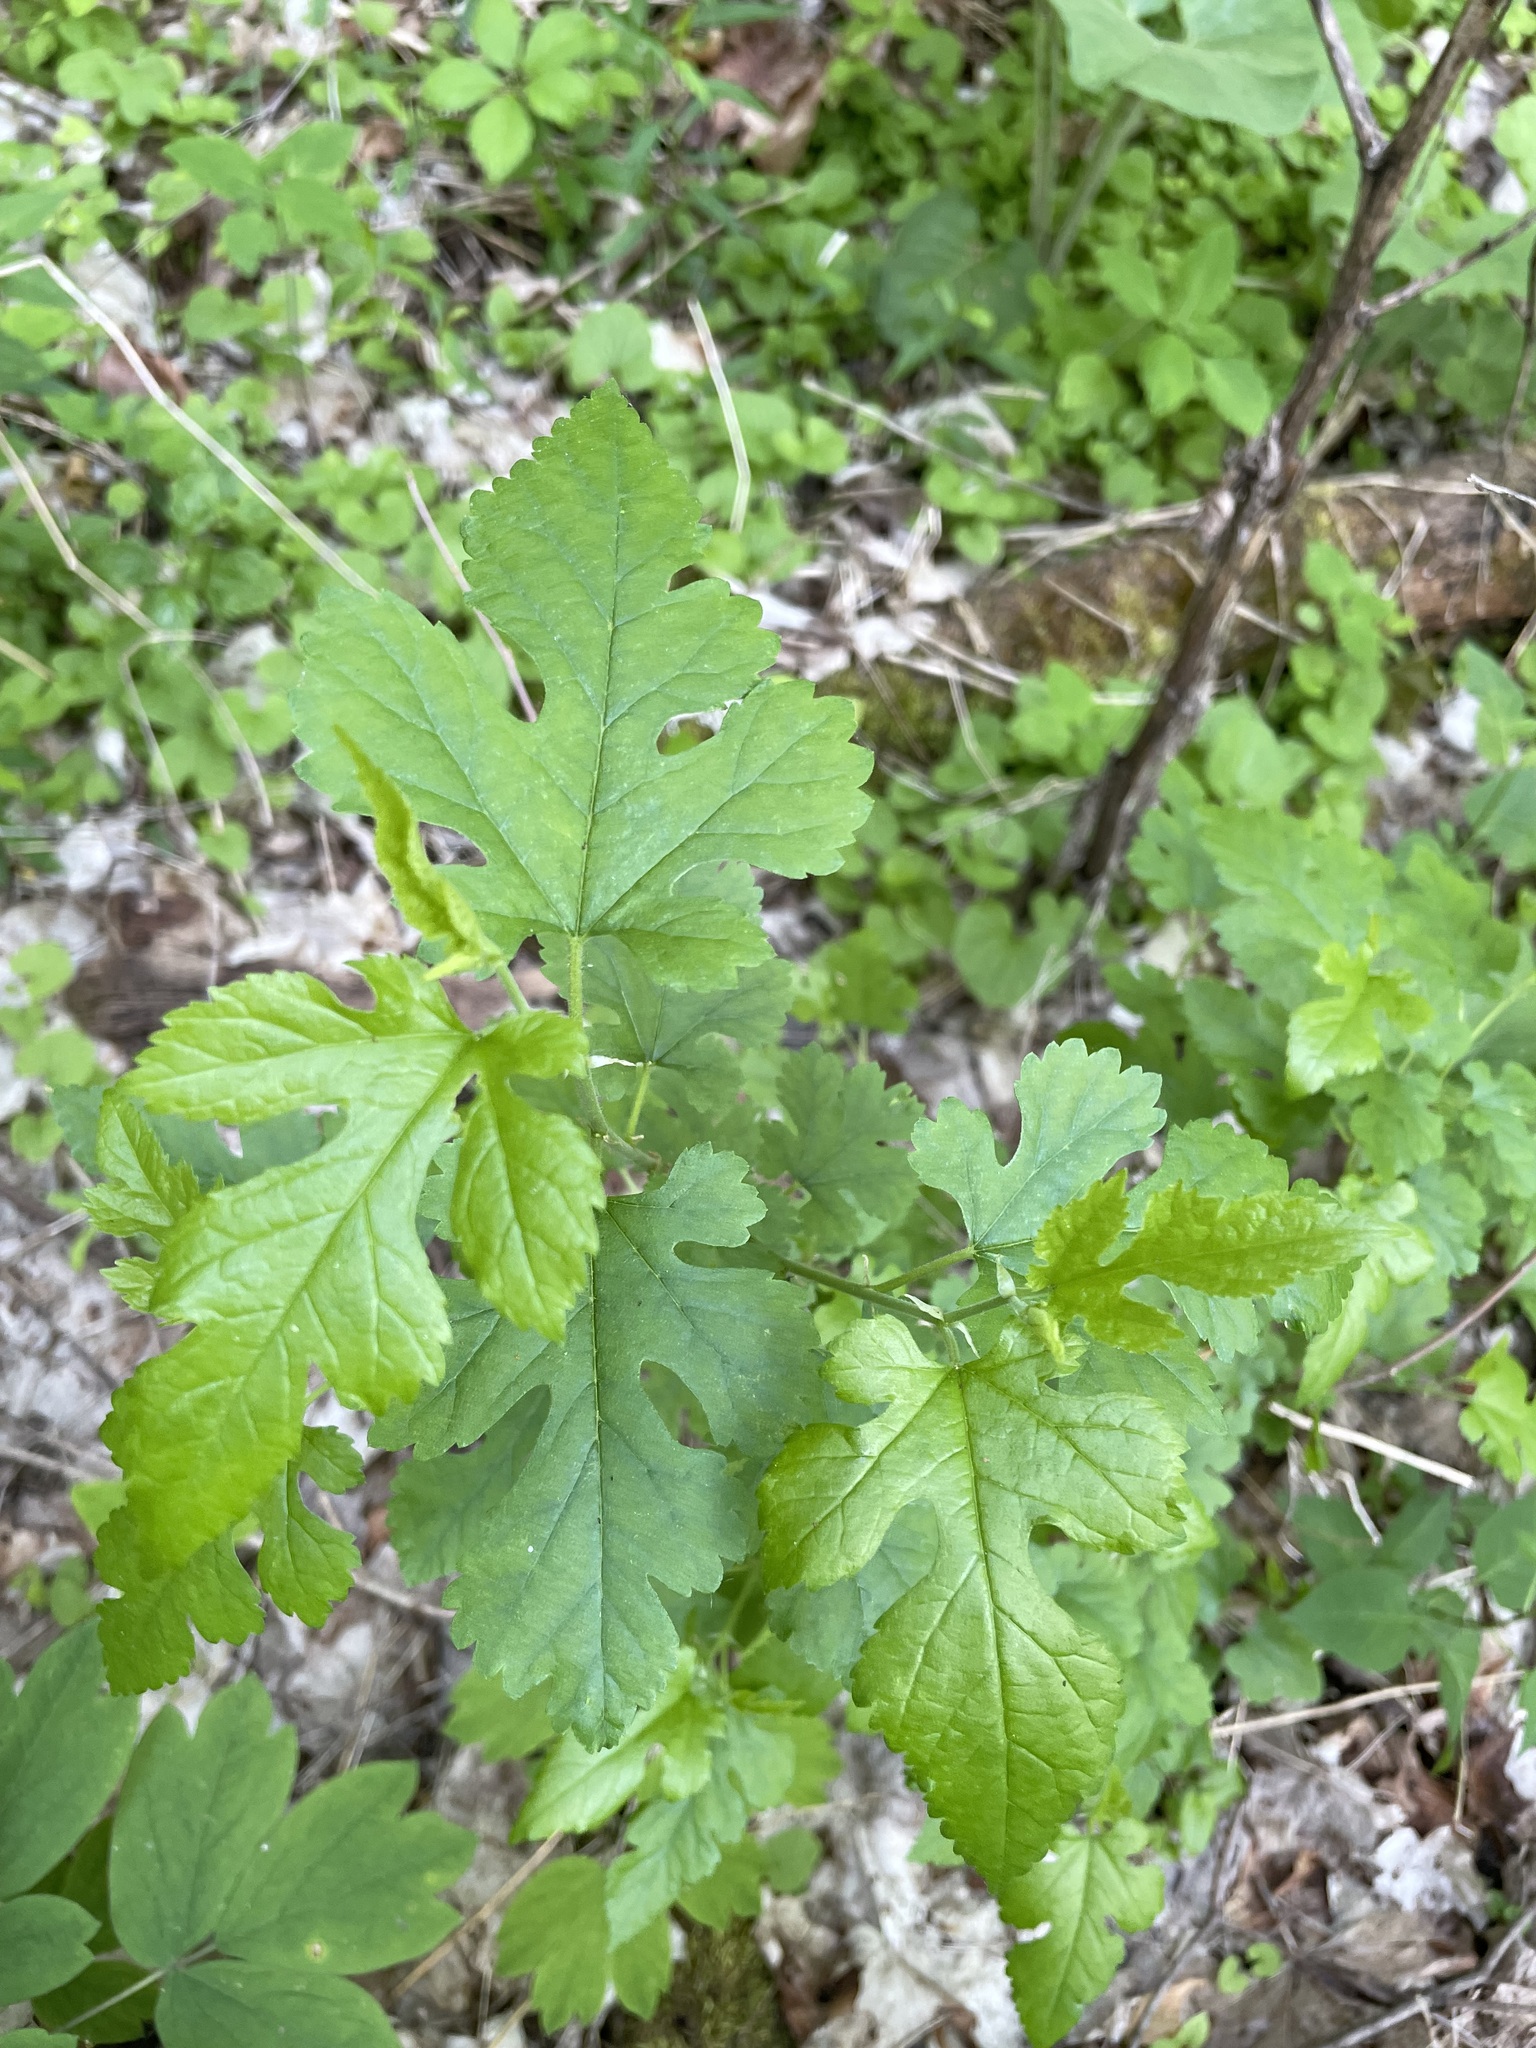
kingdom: Plantae
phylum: Tracheophyta
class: Magnoliopsida
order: Rosales
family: Moraceae
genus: Morus
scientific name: Morus alba
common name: White mulberry
